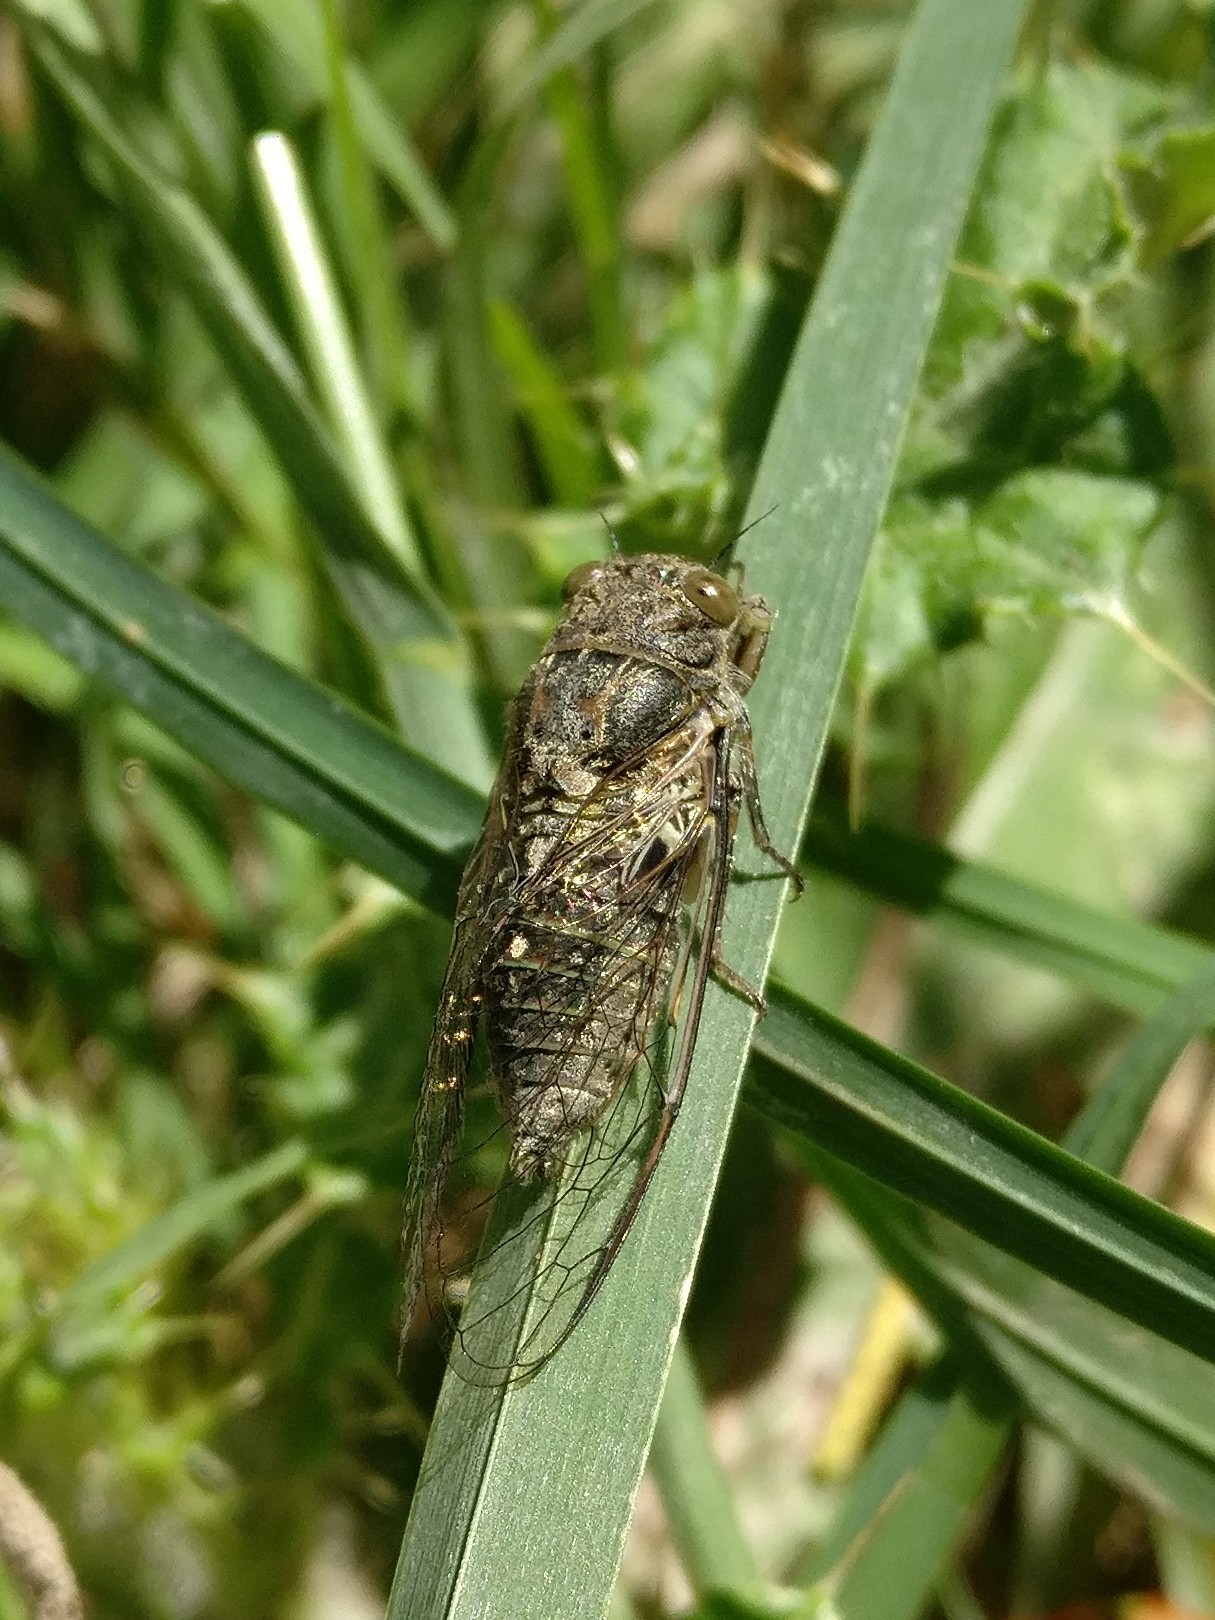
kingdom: Animalia
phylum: Arthropoda
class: Insecta
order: Hemiptera
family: Cicadidae
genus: Notopsalta
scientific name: Notopsalta sericea
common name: Clay bank cicada
